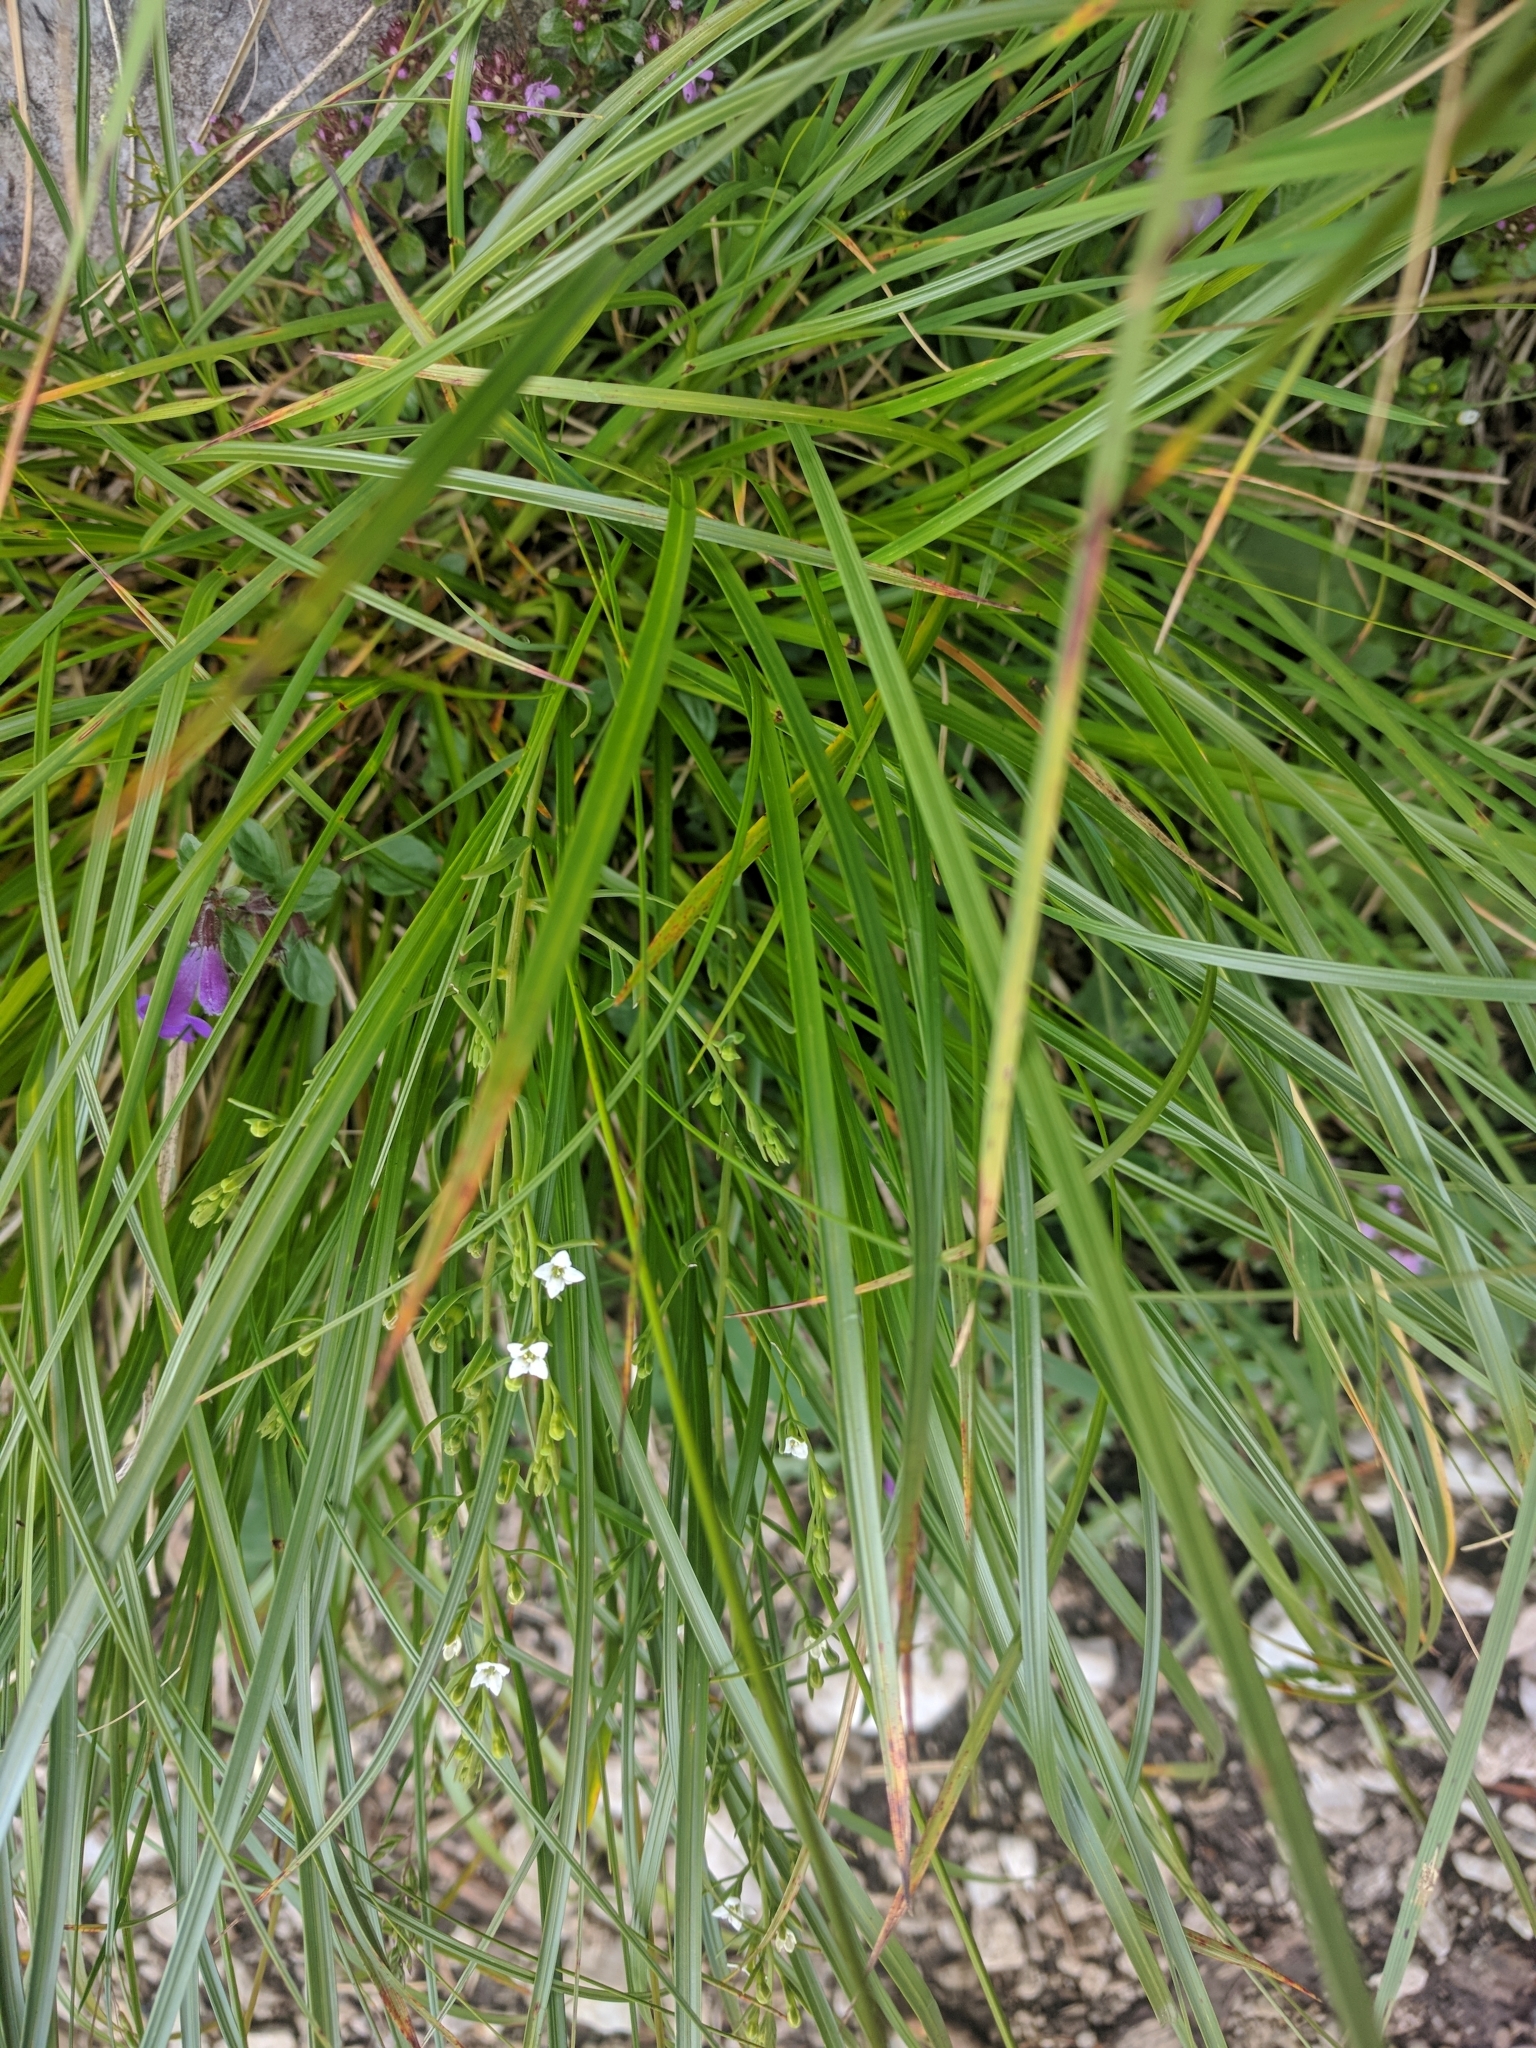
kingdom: Plantae
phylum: Tracheophyta
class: Magnoliopsida
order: Santalales
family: Thesiaceae
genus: Thesium
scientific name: Thesium alpinum
